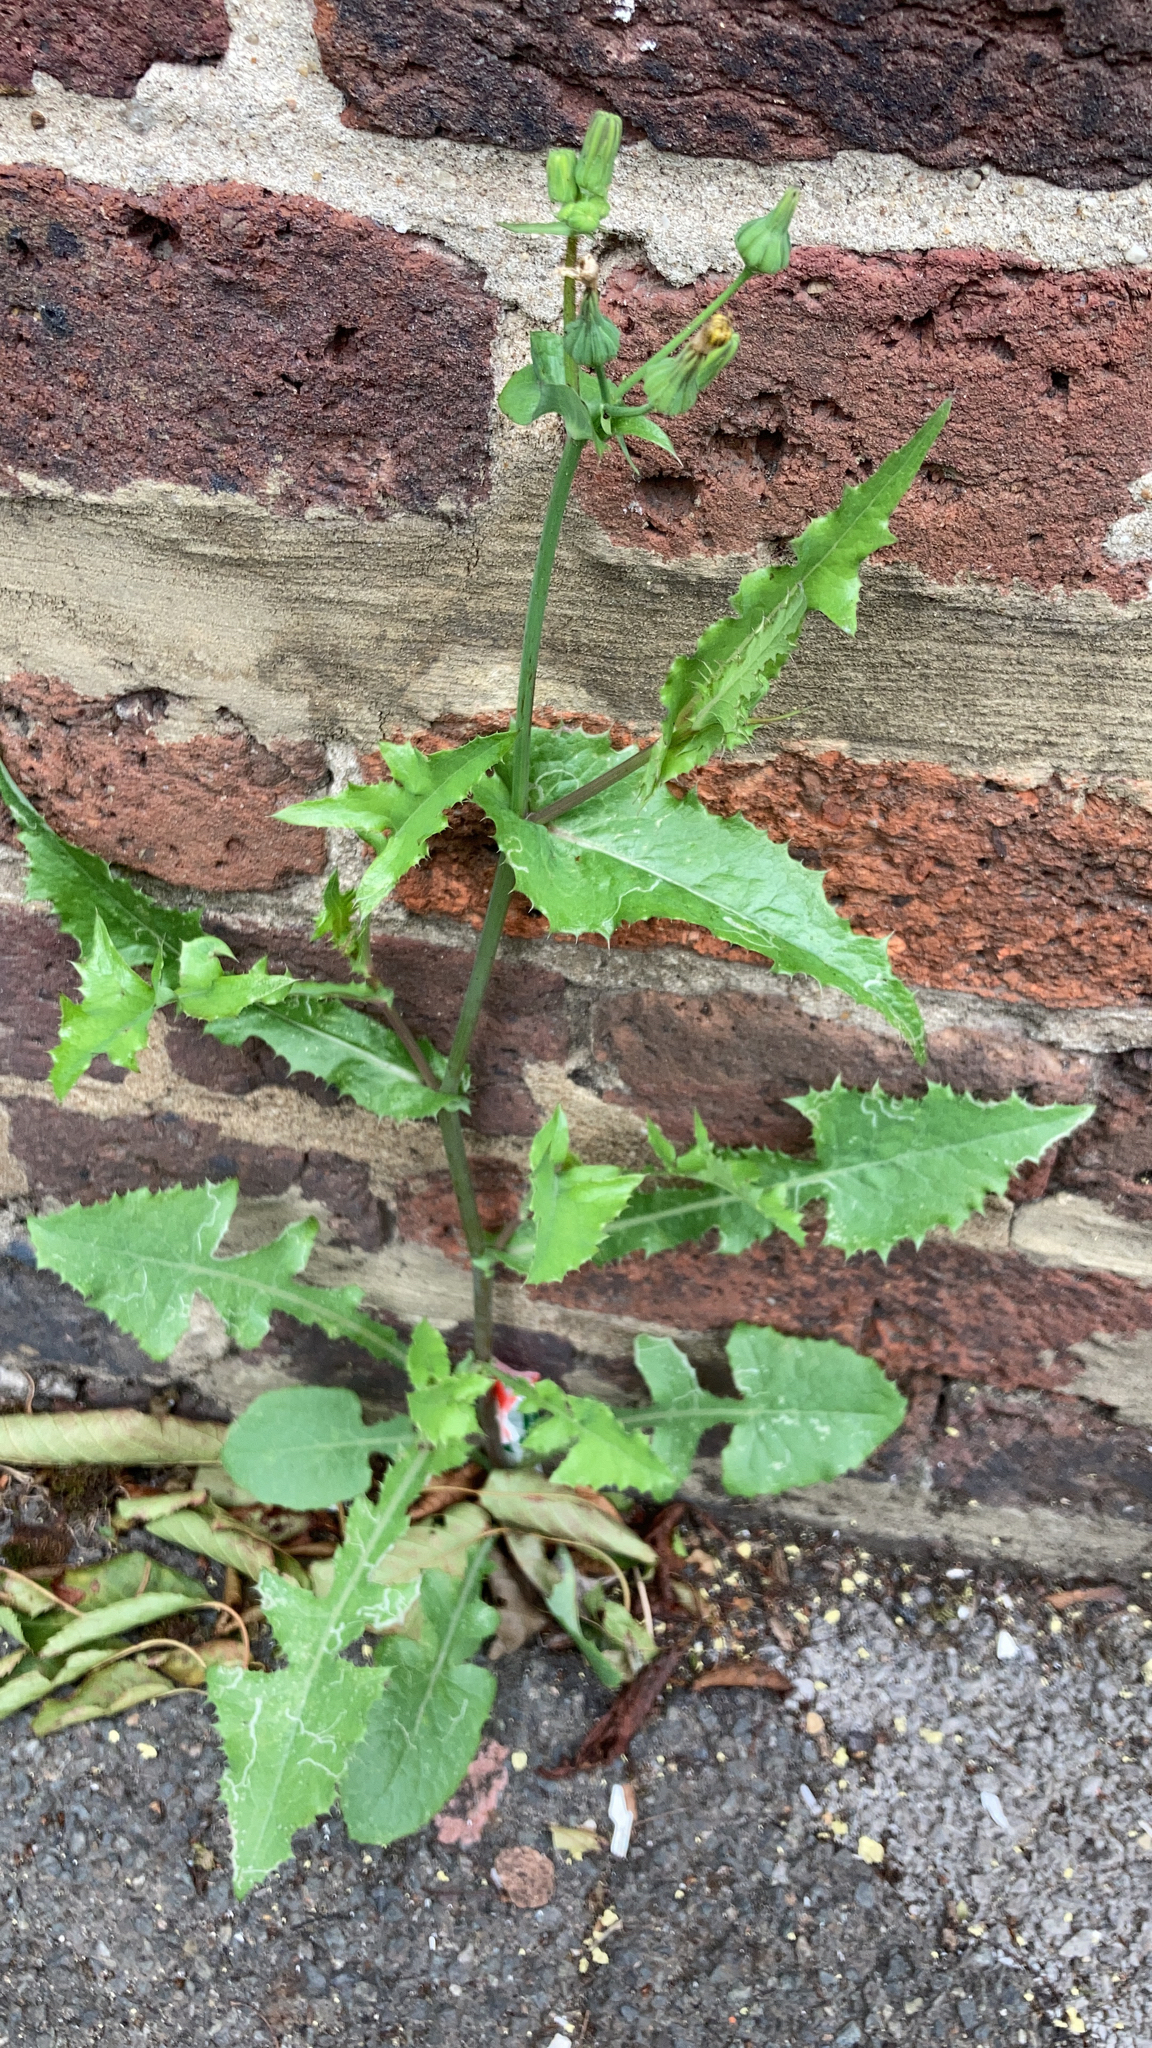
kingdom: Plantae
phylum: Tracheophyta
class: Magnoliopsida
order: Asterales
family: Asteraceae
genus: Sonchus
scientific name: Sonchus oleraceus
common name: Common sowthistle
